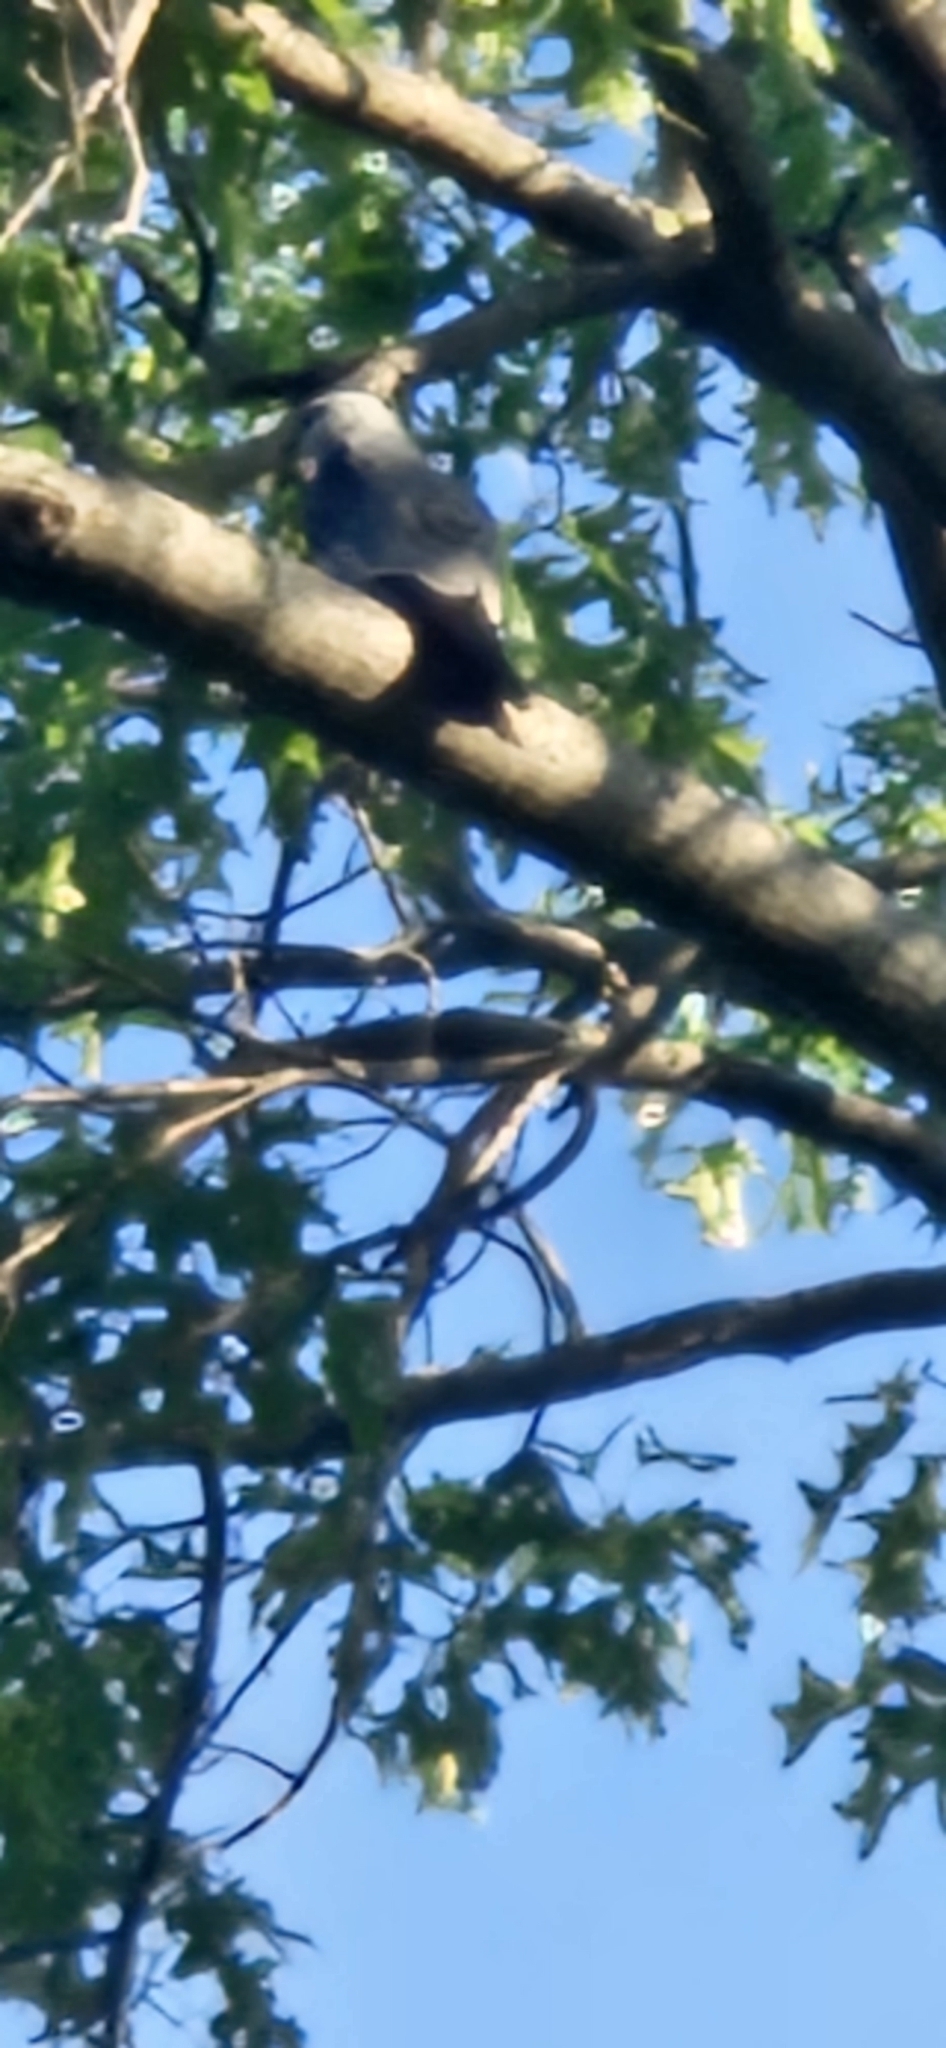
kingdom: Animalia
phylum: Chordata
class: Aves
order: Accipitriformes
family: Accipitridae
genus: Ictinia
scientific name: Ictinia mississippiensis
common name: Mississippi kite
